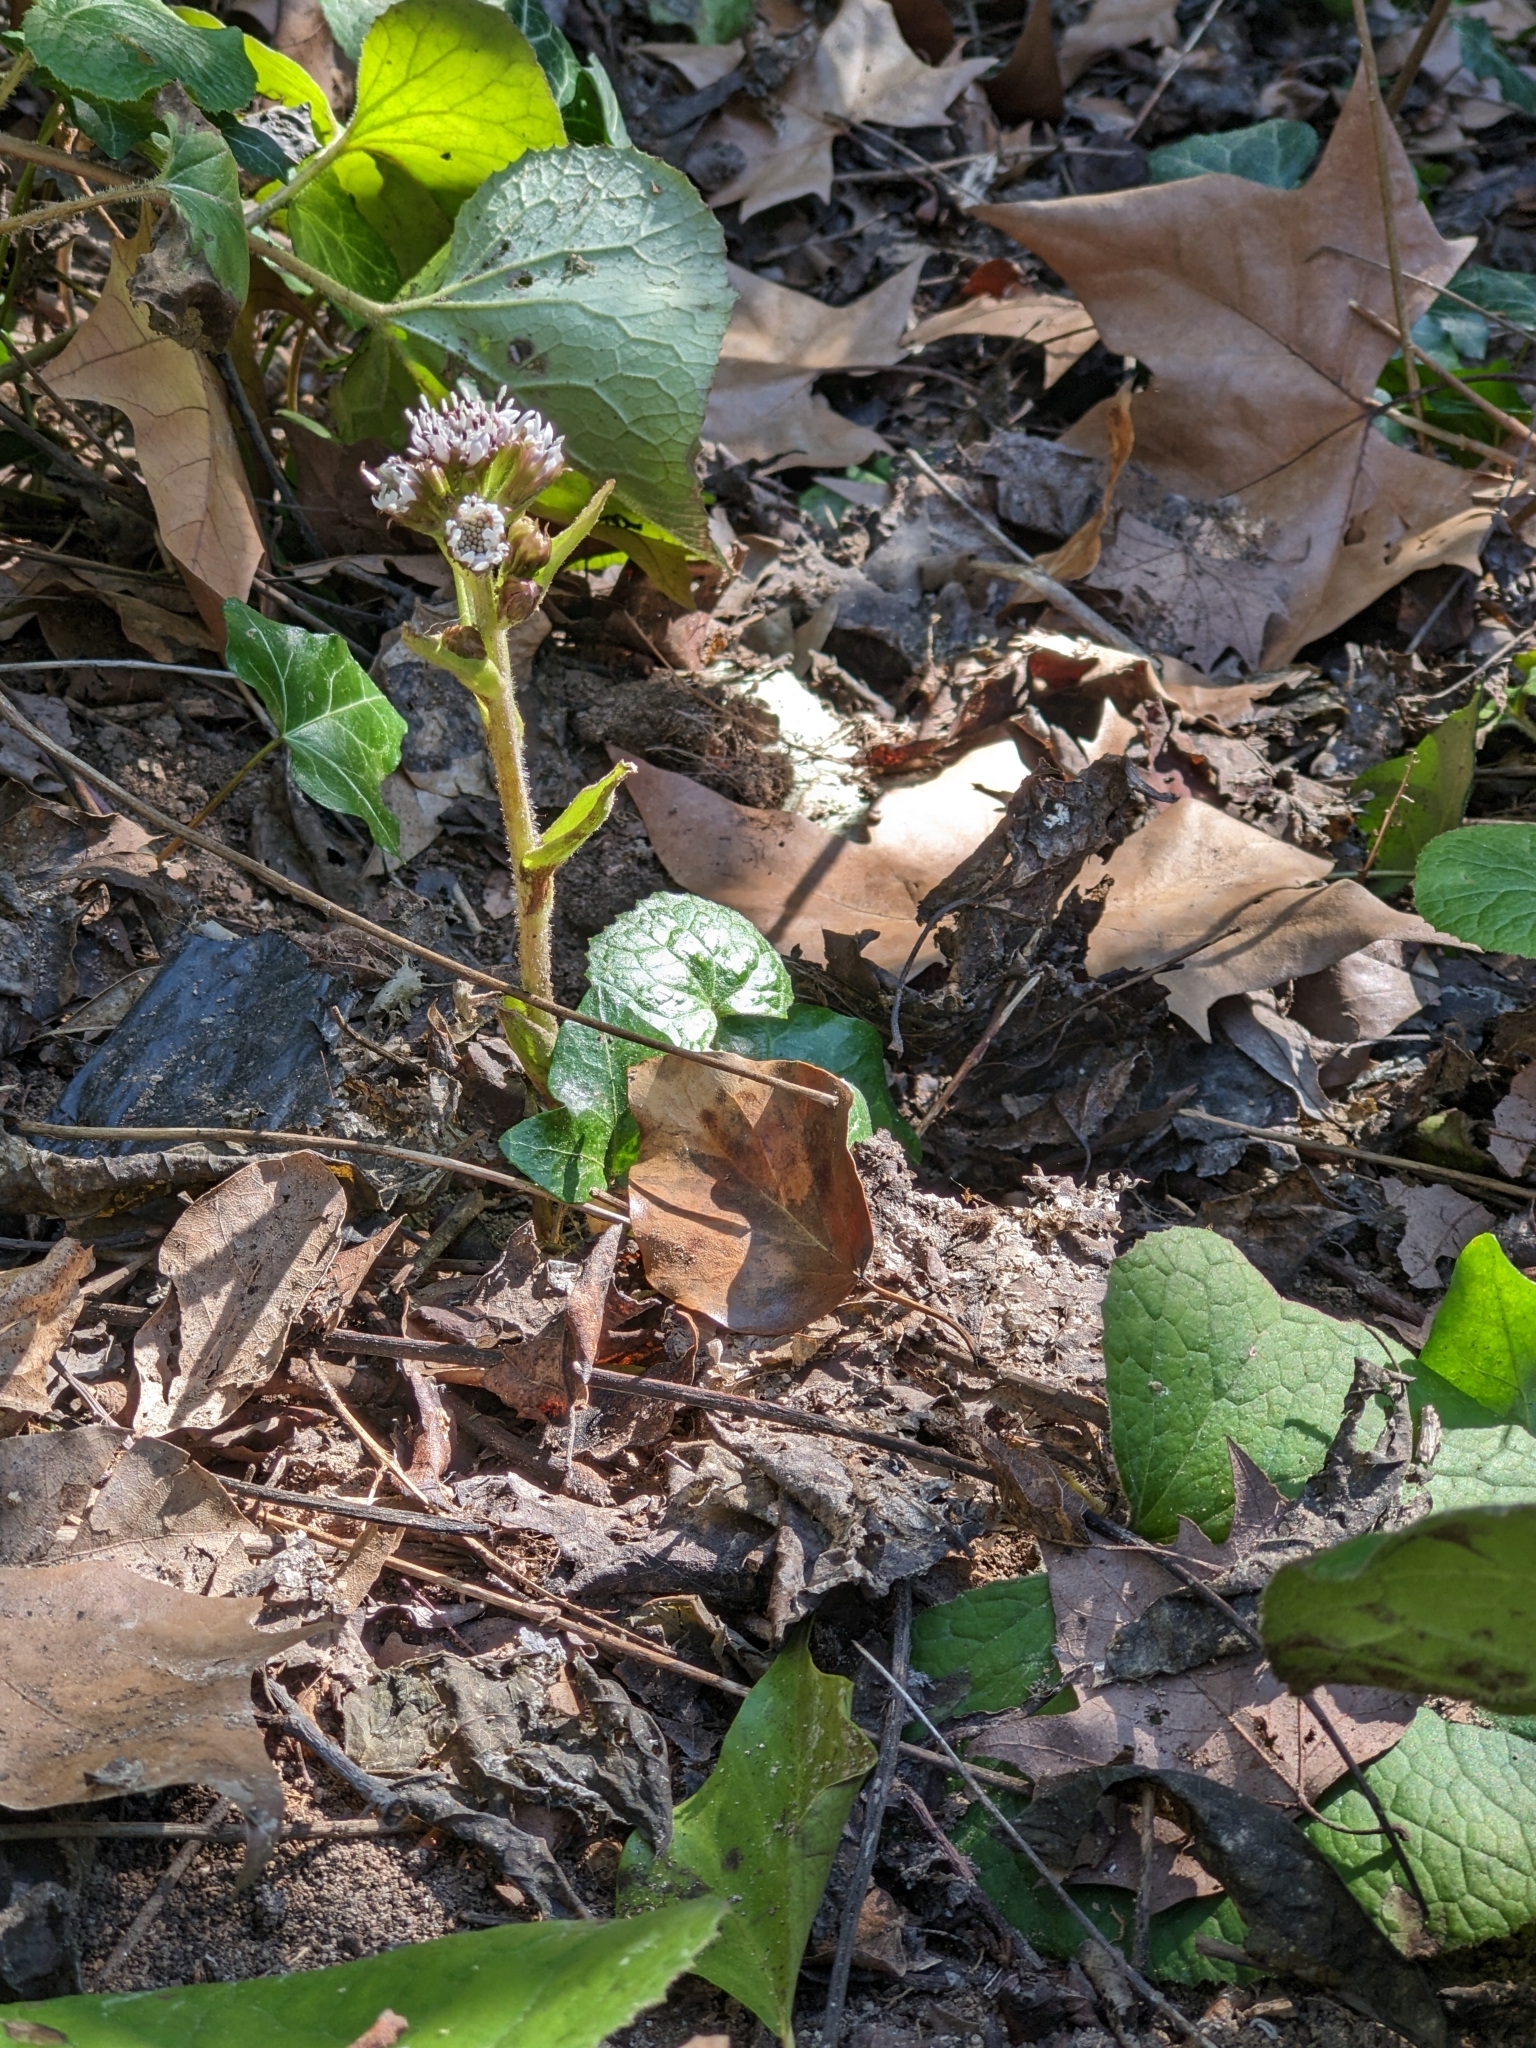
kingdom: Plantae
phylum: Tracheophyta
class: Magnoliopsida
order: Asterales
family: Asteraceae
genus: Petasites
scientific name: Petasites pyrenaicus
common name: Winter heliotrope
